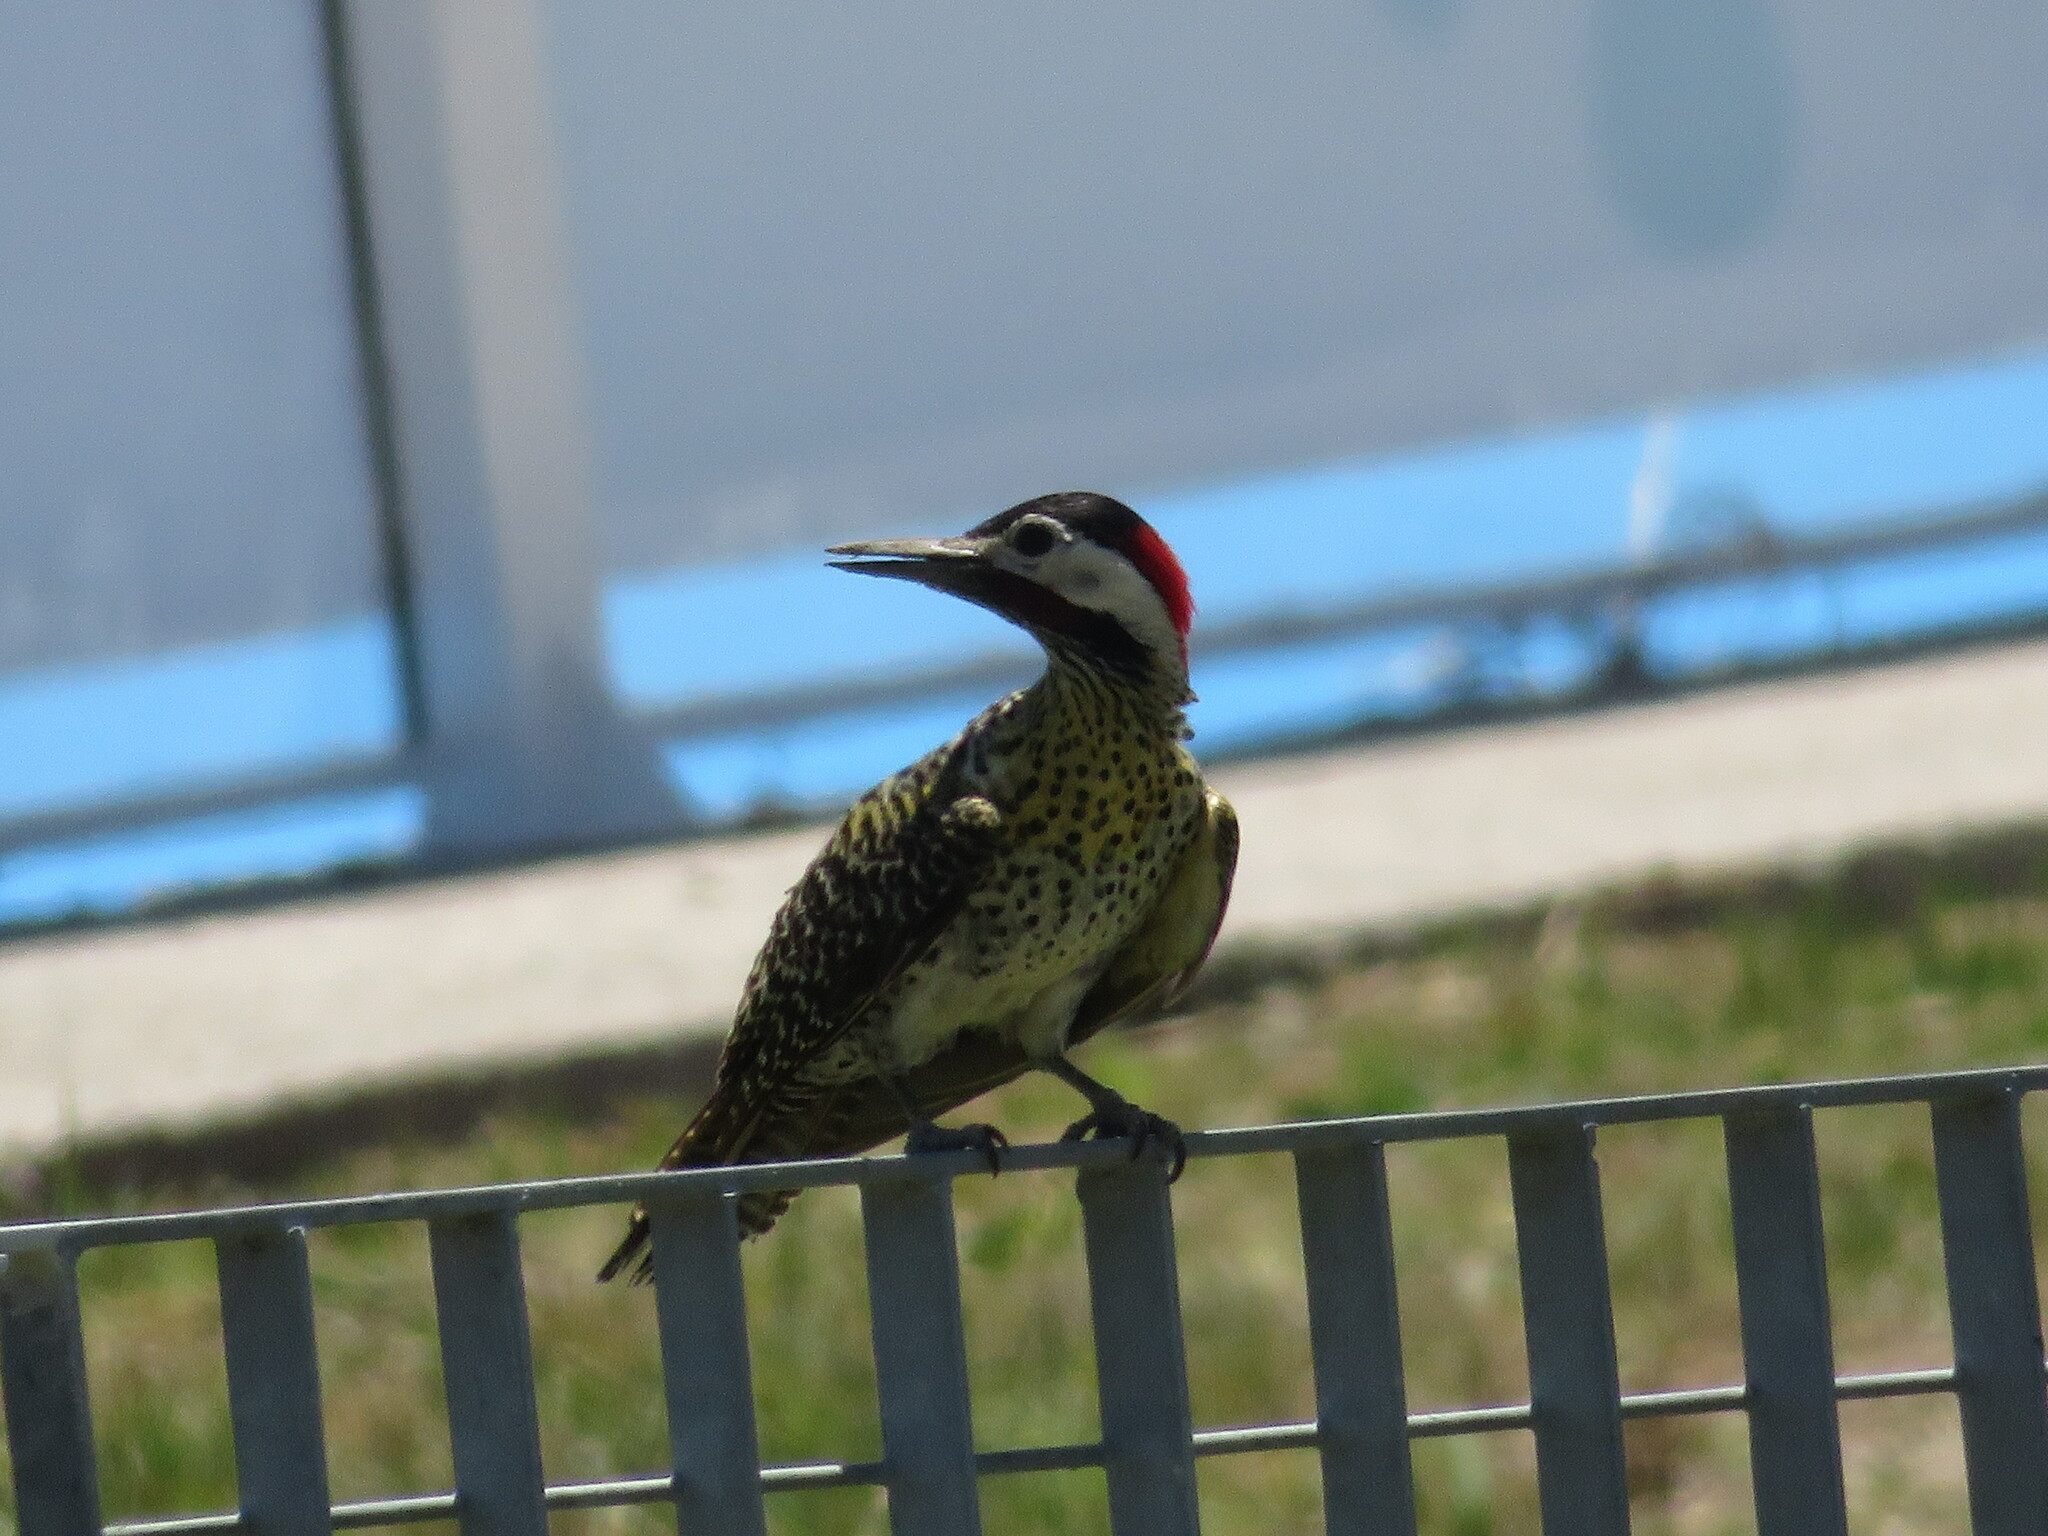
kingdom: Animalia
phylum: Chordata
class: Aves
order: Piciformes
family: Picidae
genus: Colaptes
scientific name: Colaptes melanochloros
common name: Green-barred woodpecker
